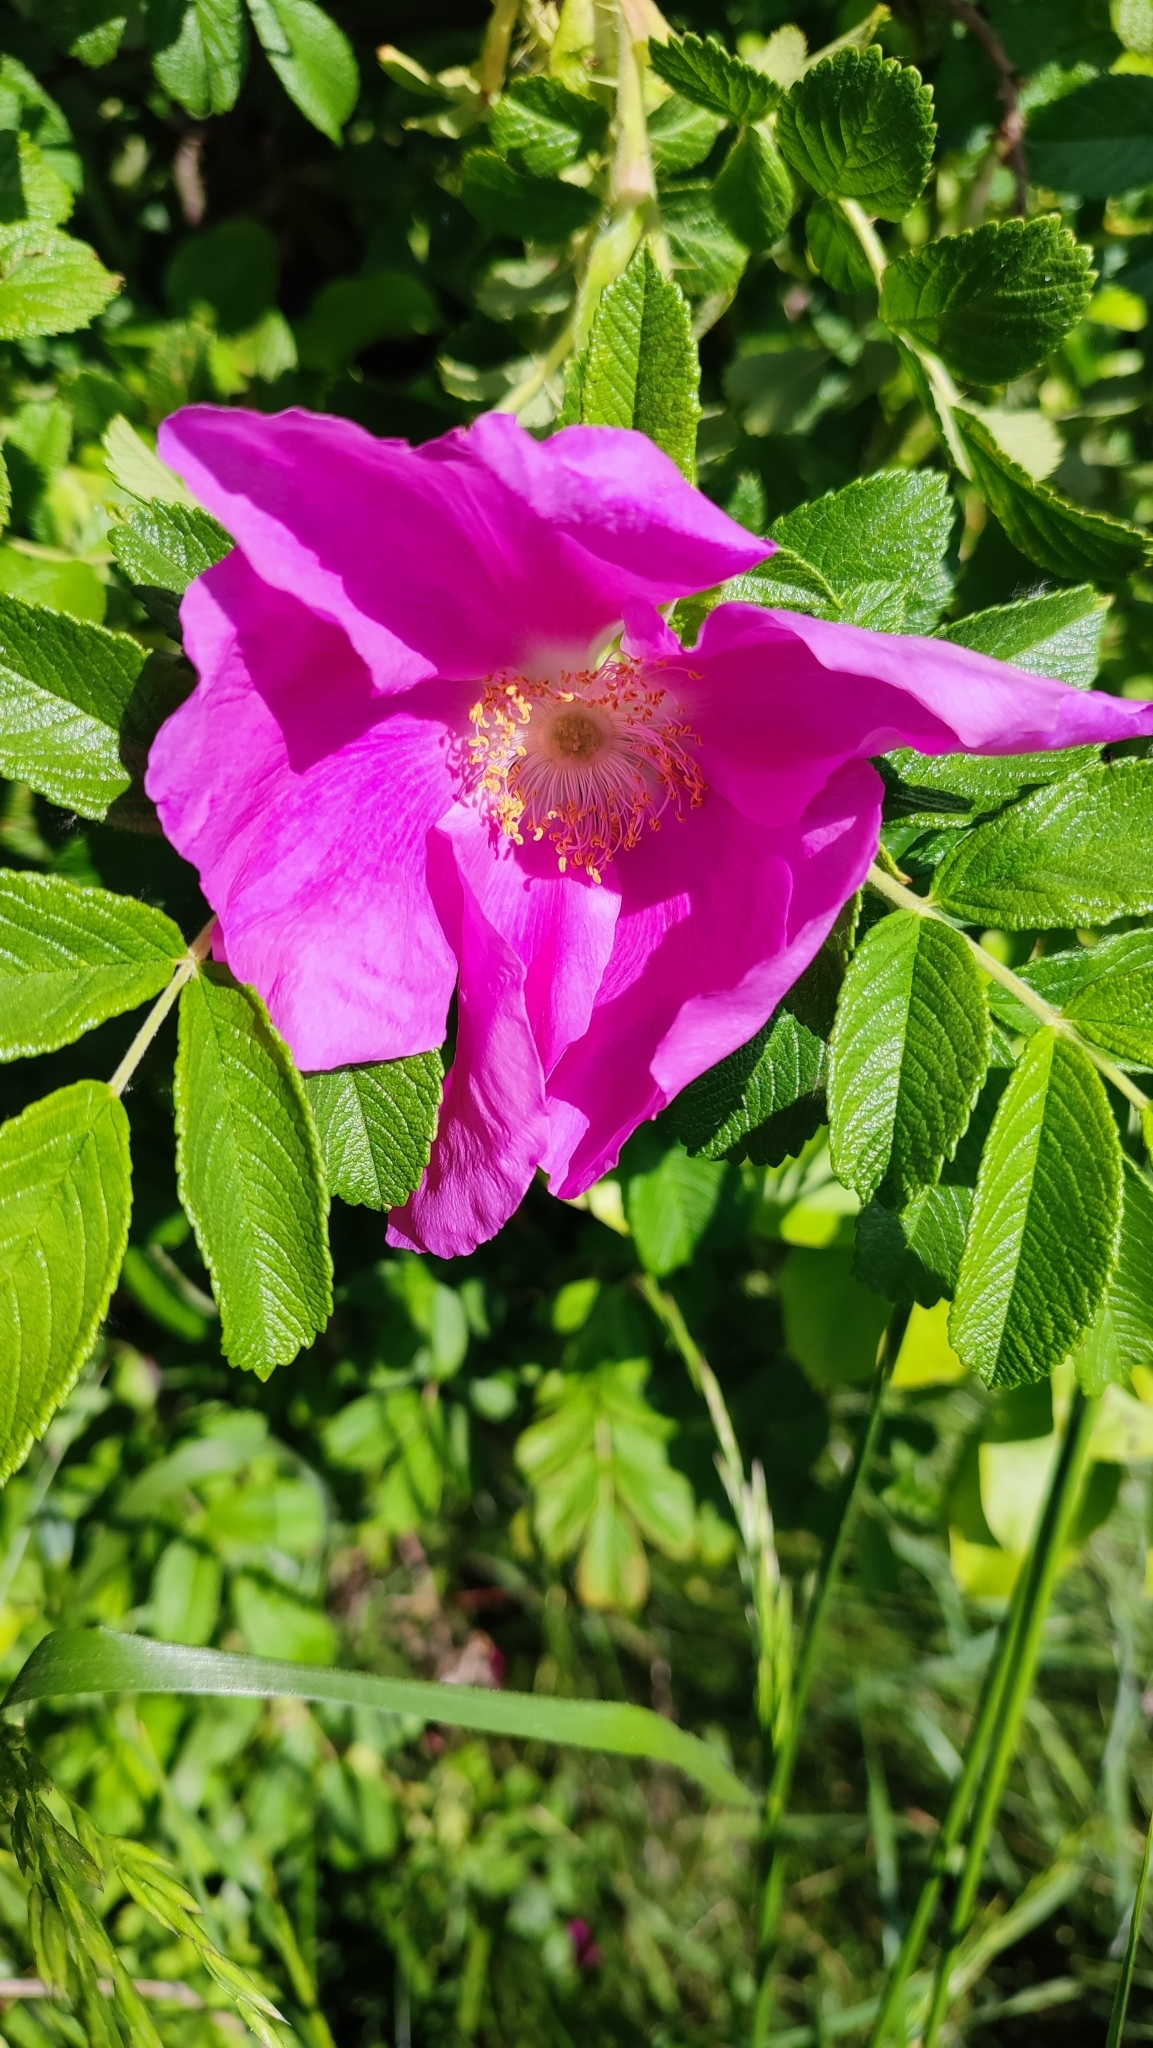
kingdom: Plantae
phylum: Tracheophyta
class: Magnoliopsida
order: Rosales
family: Rosaceae
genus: Rosa
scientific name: Rosa rugosa
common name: Japanese rose
